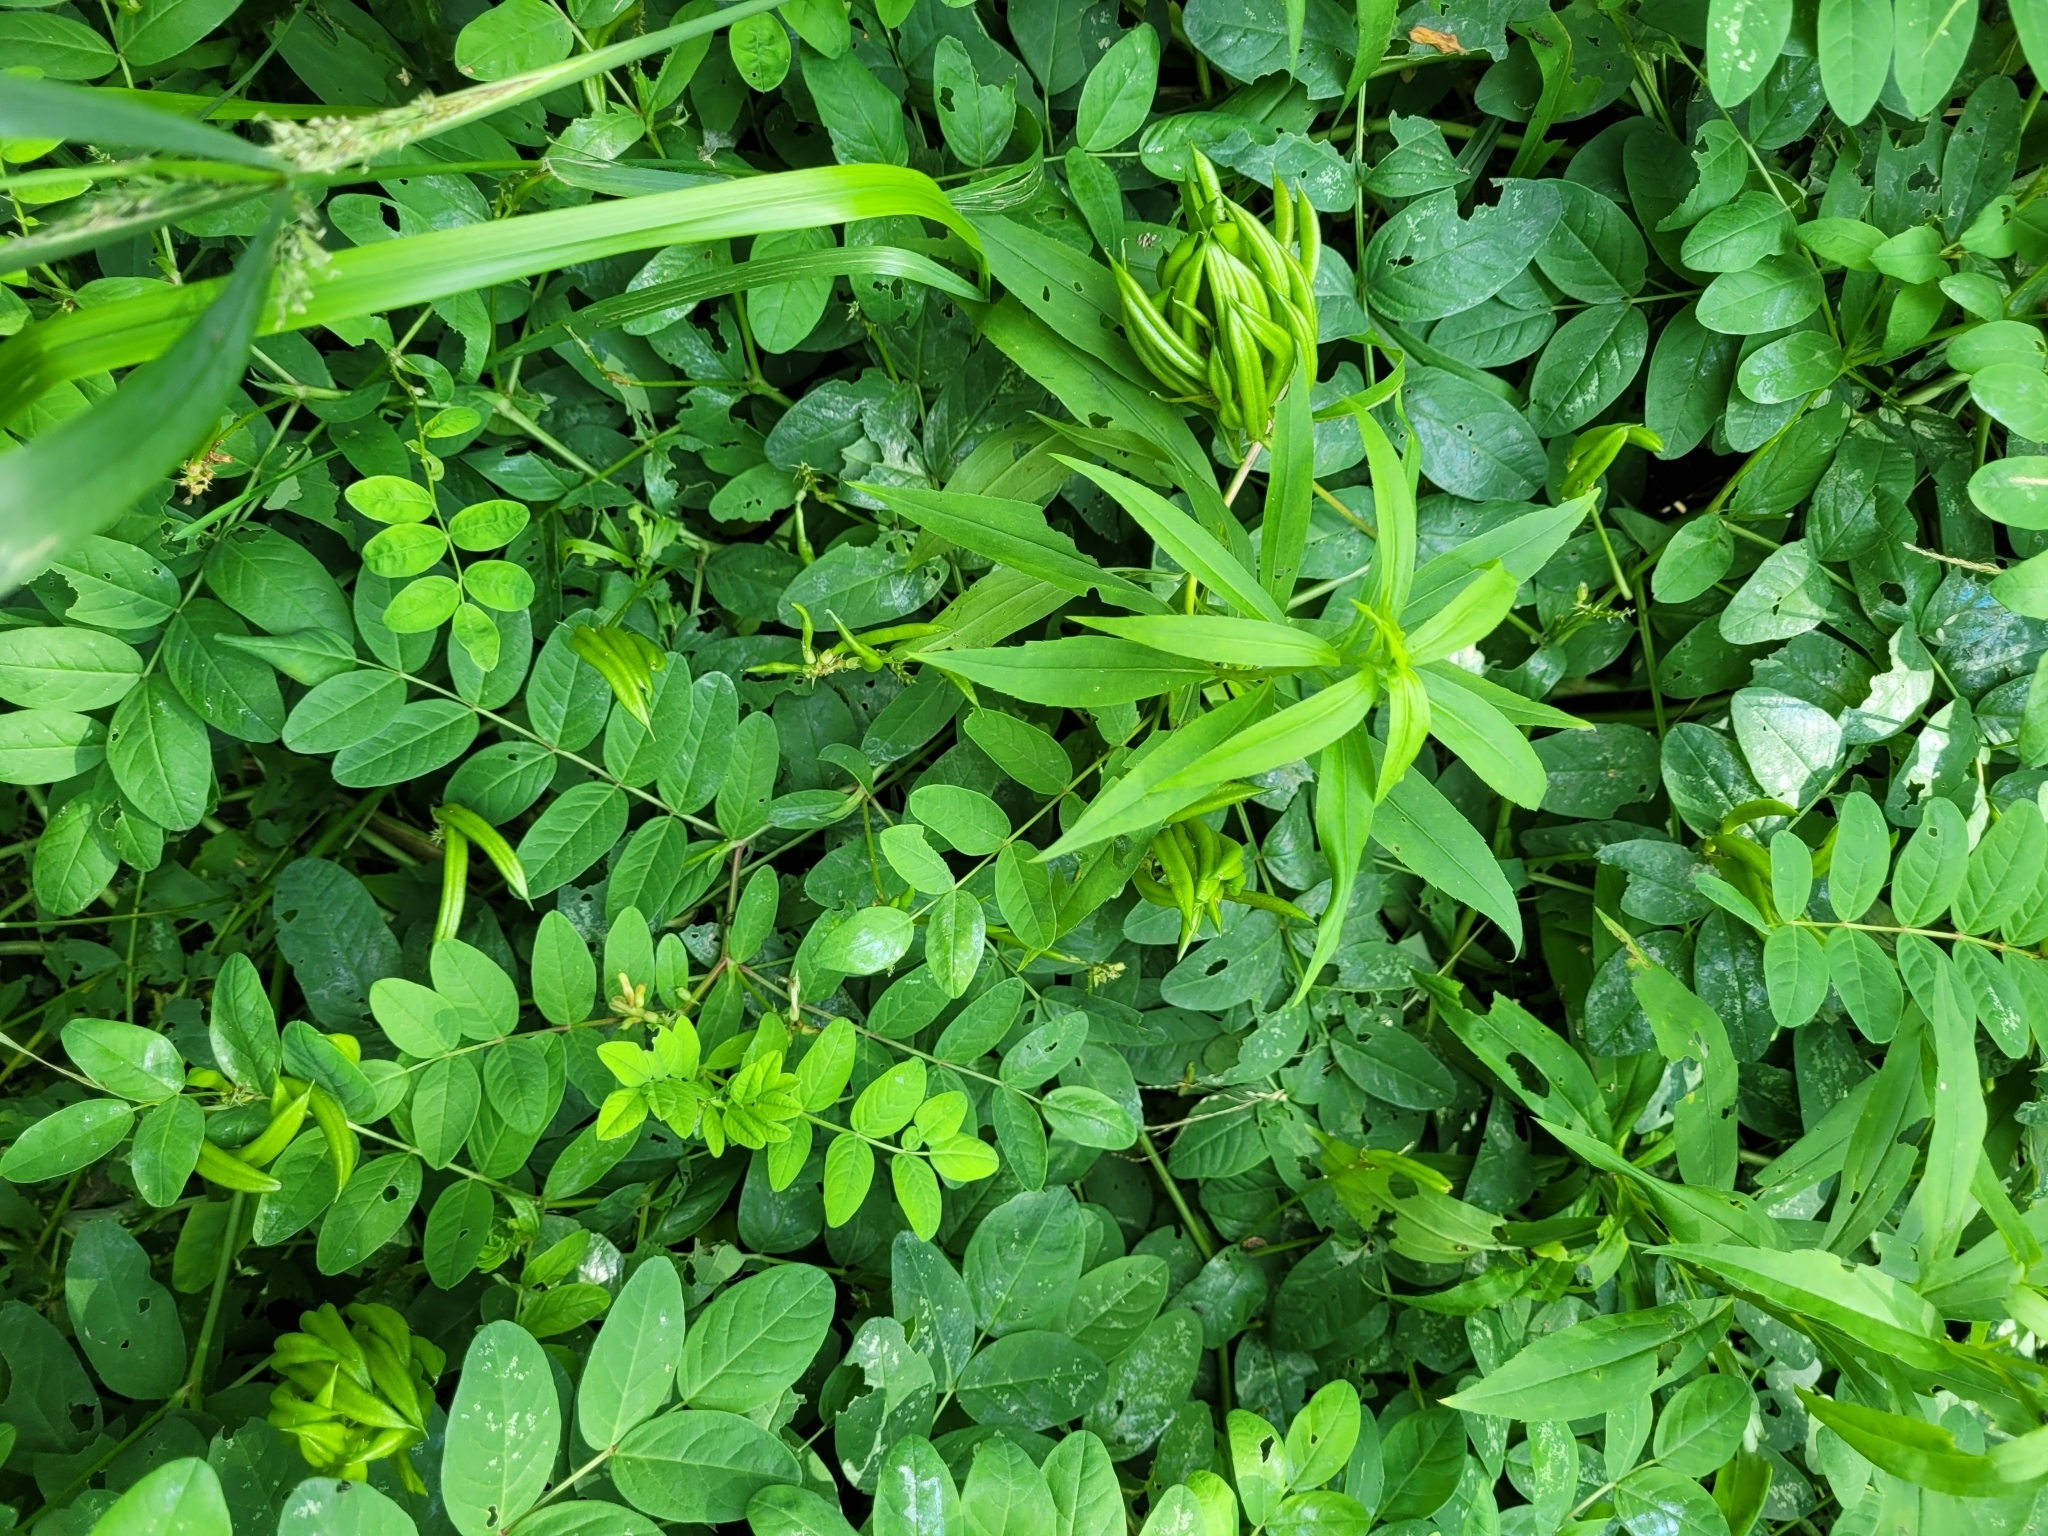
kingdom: Plantae
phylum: Tracheophyta
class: Magnoliopsida
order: Fabales
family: Fabaceae
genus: Astragalus
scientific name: Astragalus glycyphyllos
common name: Wild liquorice
